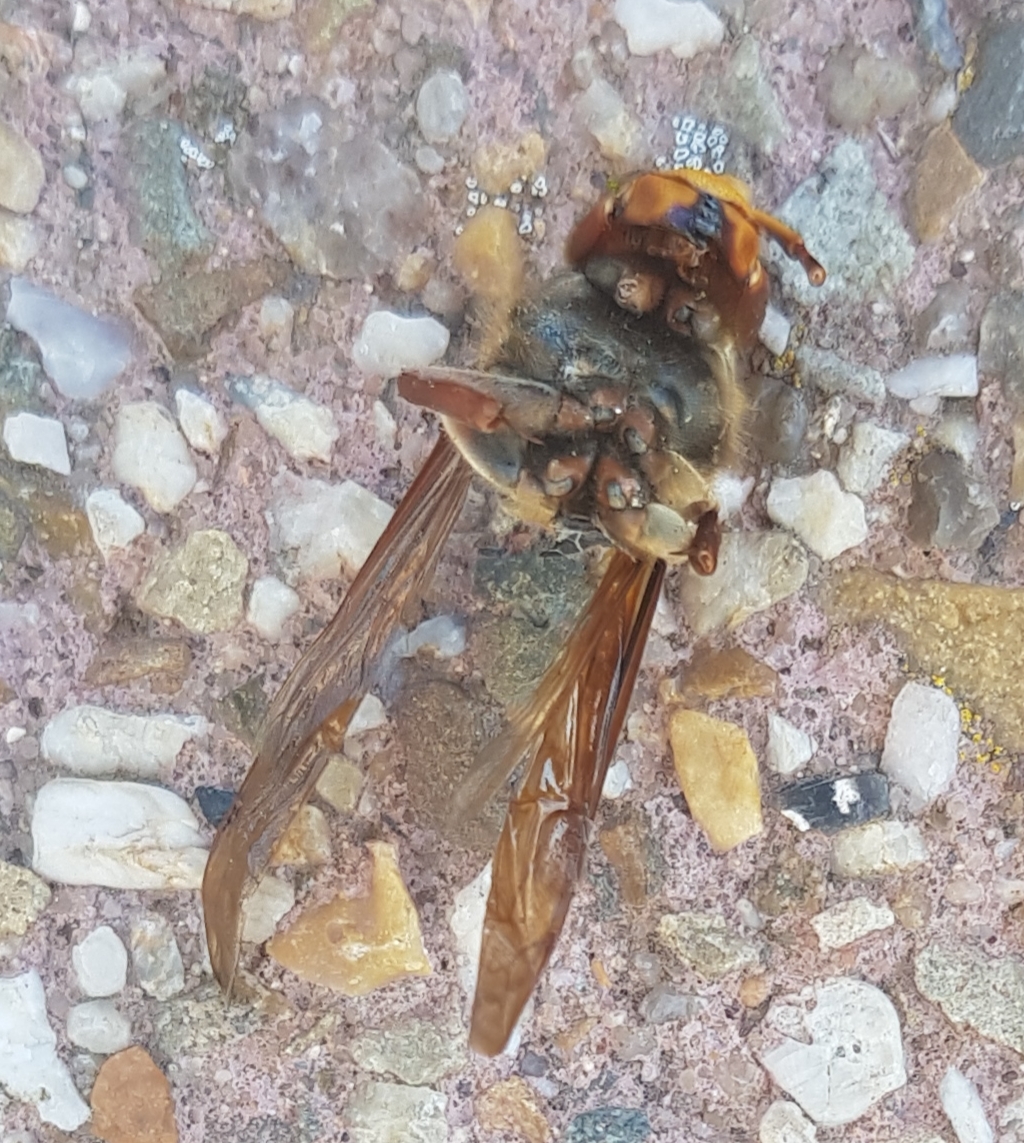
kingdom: Animalia
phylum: Arthropoda
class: Insecta
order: Hymenoptera
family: Vespidae
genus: Vespa
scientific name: Vespa crabro
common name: Hornet
